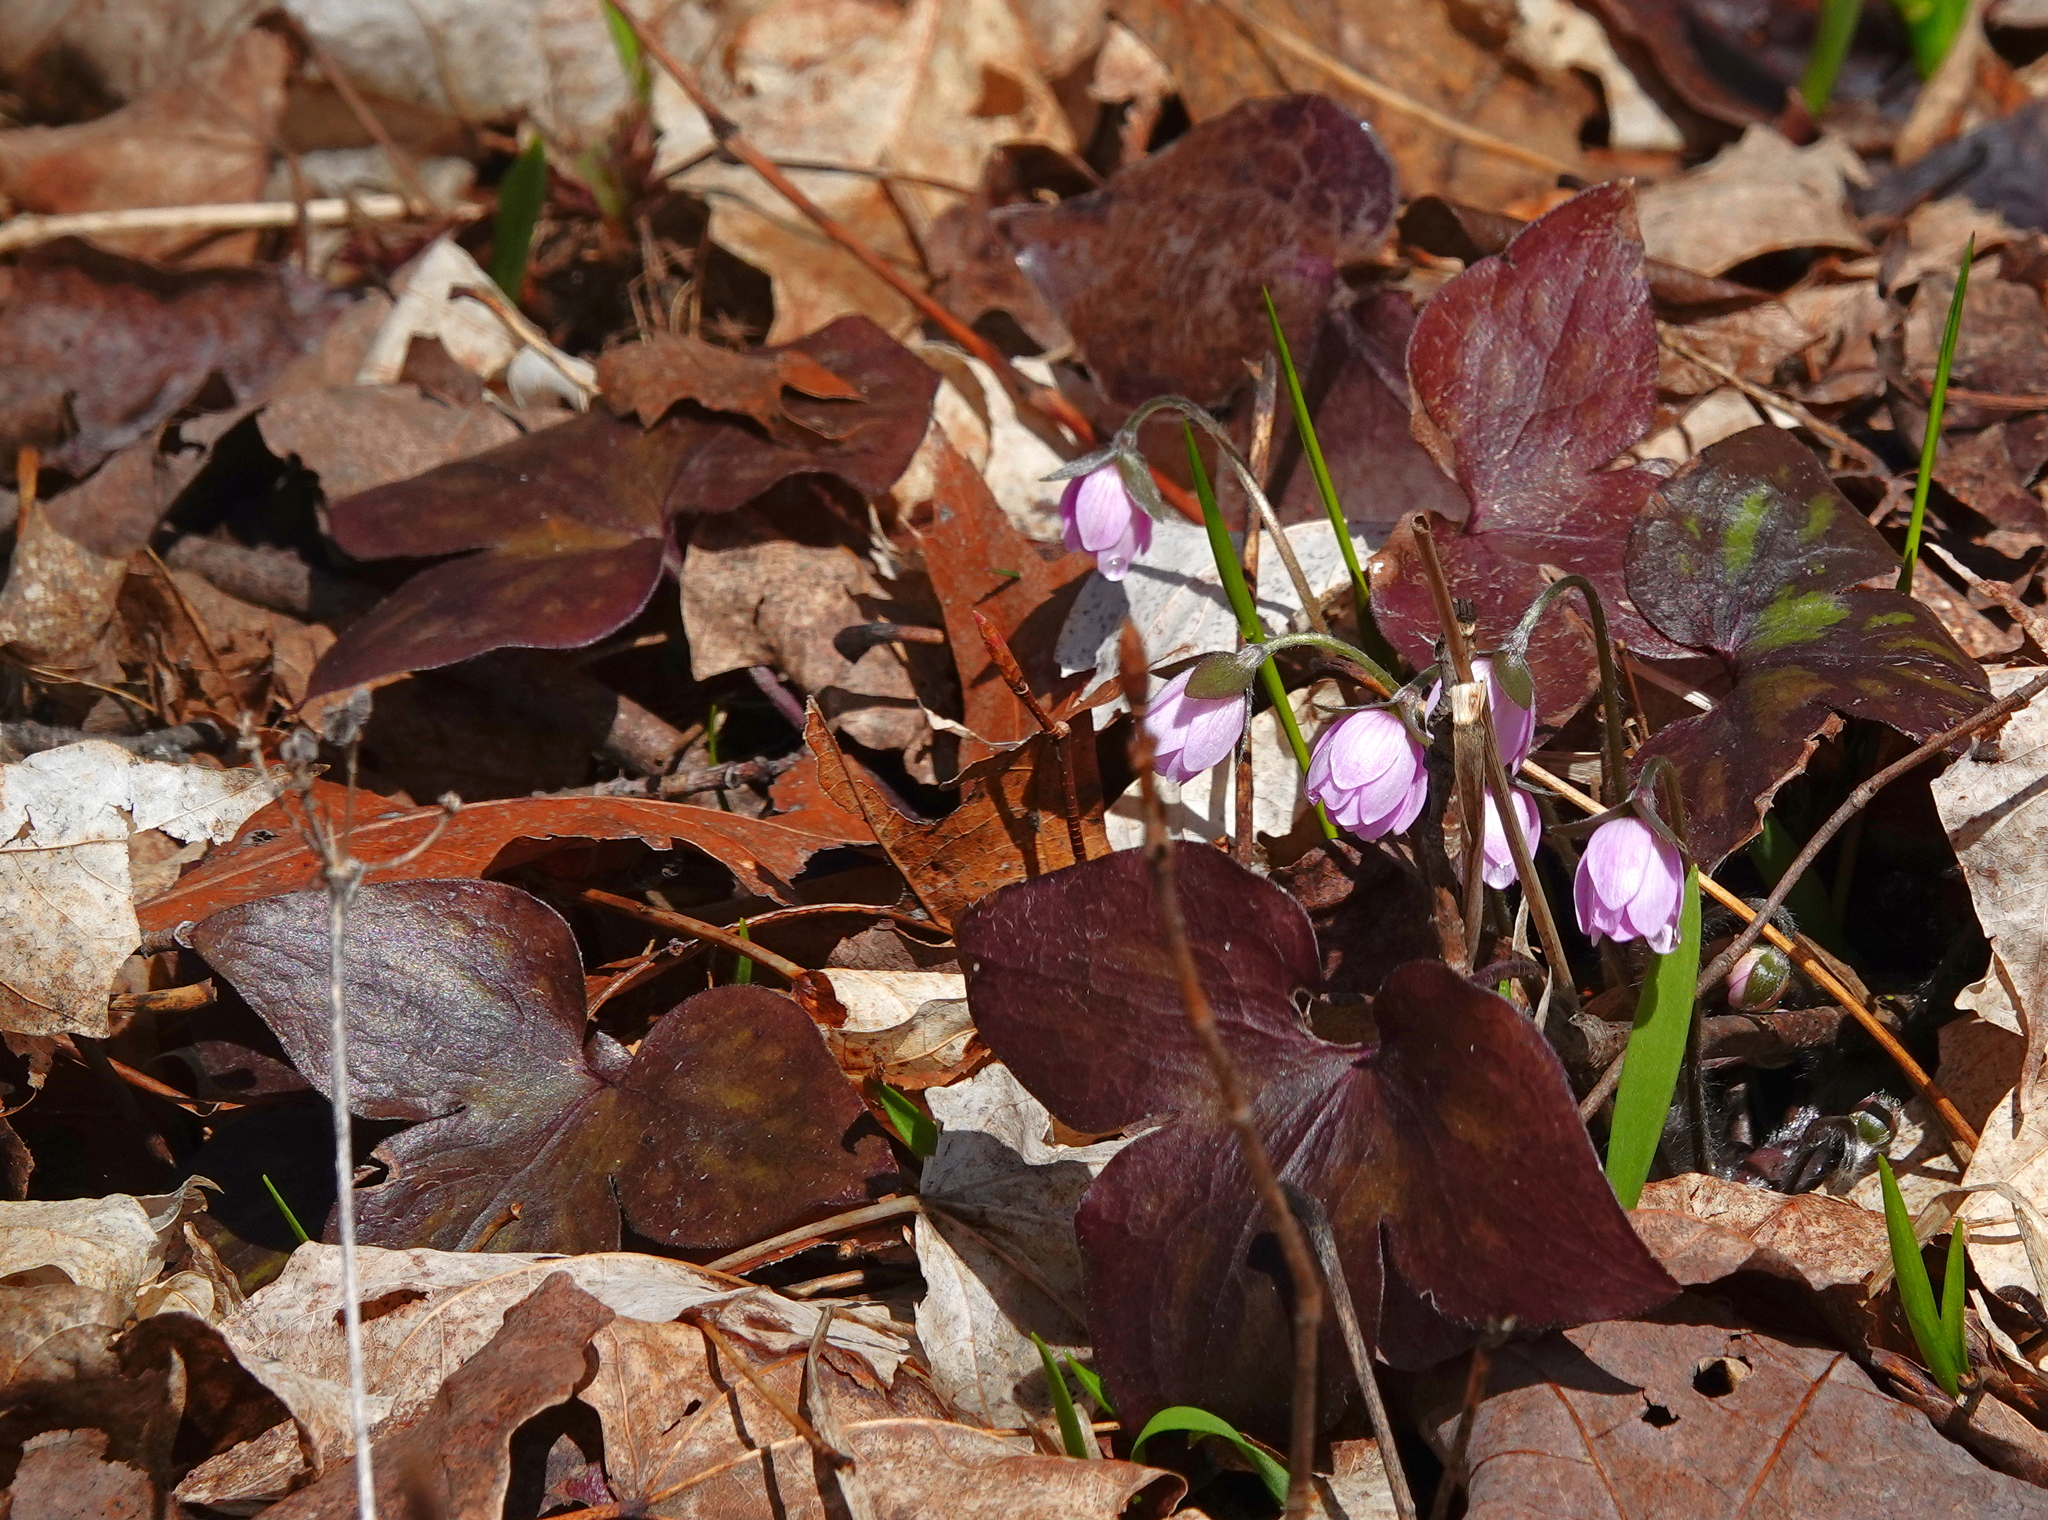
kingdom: Plantae
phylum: Tracheophyta
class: Magnoliopsida
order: Ranunculales
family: Ranunculaceae
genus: Hepatica
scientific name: Hepatica acutiloba
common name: Sharp-lobed hepatica
